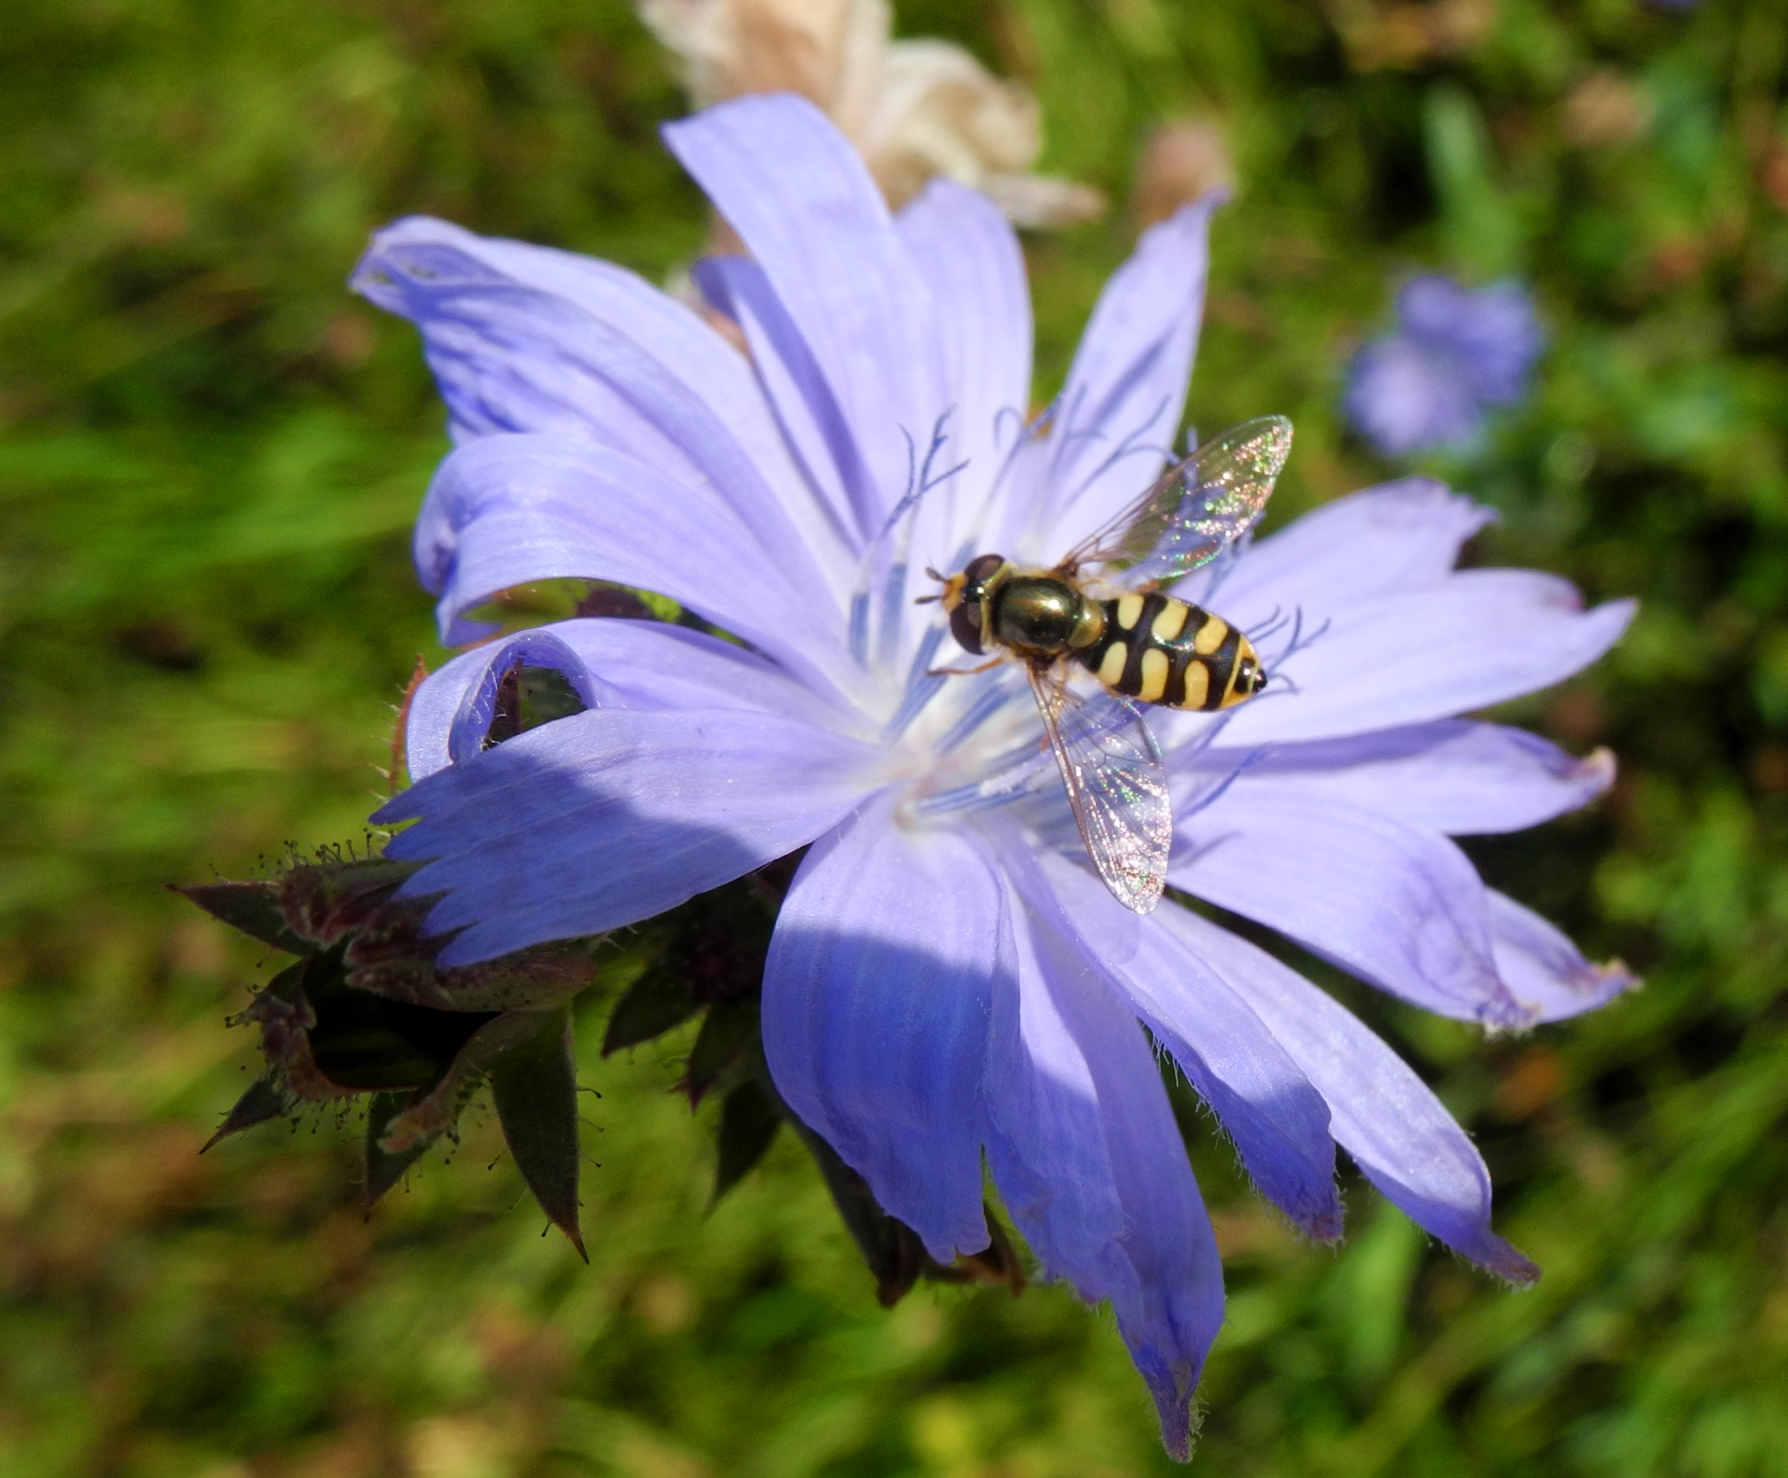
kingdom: Animalia
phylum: Arthropoda
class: Insecta
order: Diptera
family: Syrphidae
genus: Eupeodes
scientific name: Eupeodes corollae
